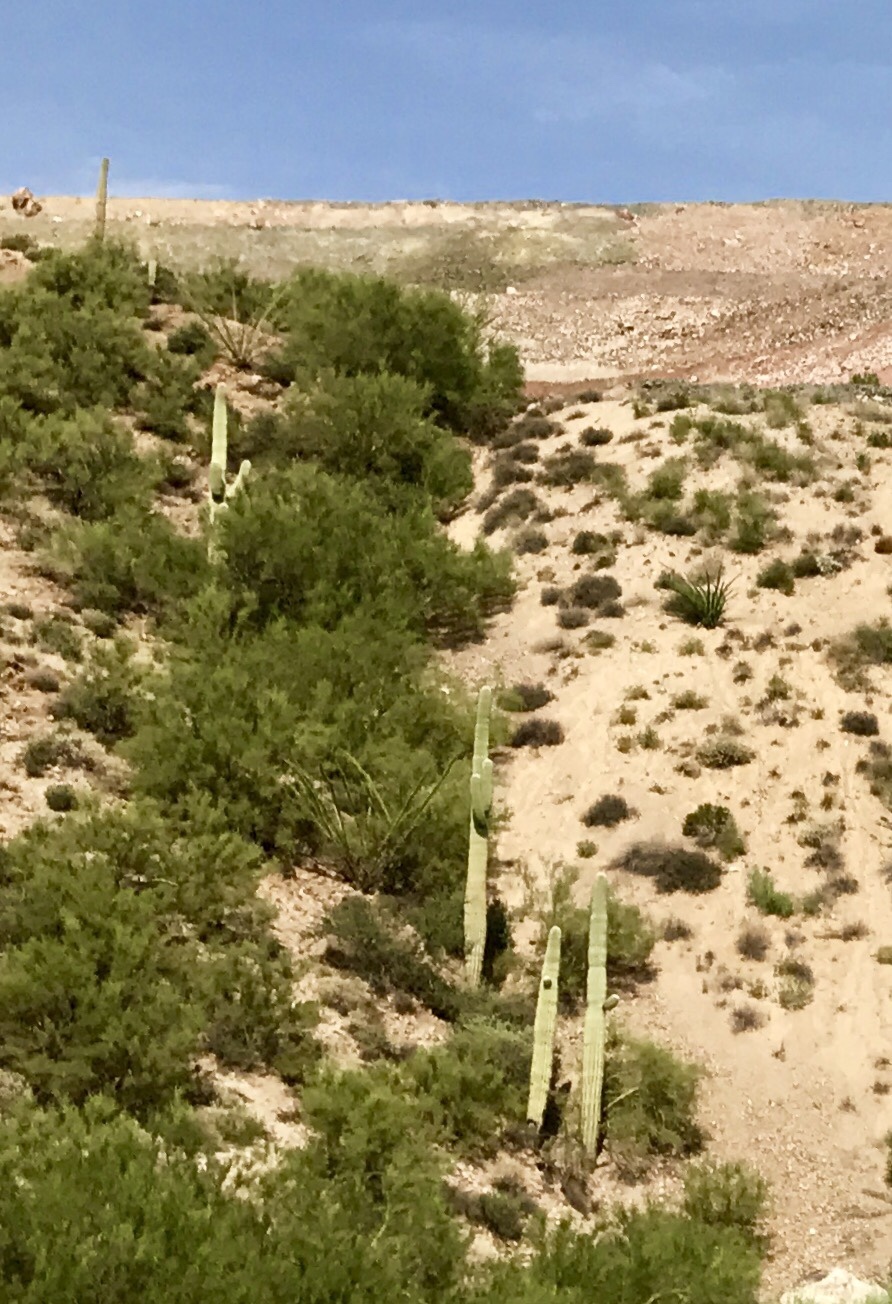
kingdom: Plantae
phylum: Tracheophyta
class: Magnoliopsida
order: Caryophyllales
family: Cactaceae
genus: Carnegiea
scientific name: Carnegiea gigantea
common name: Saguaro
